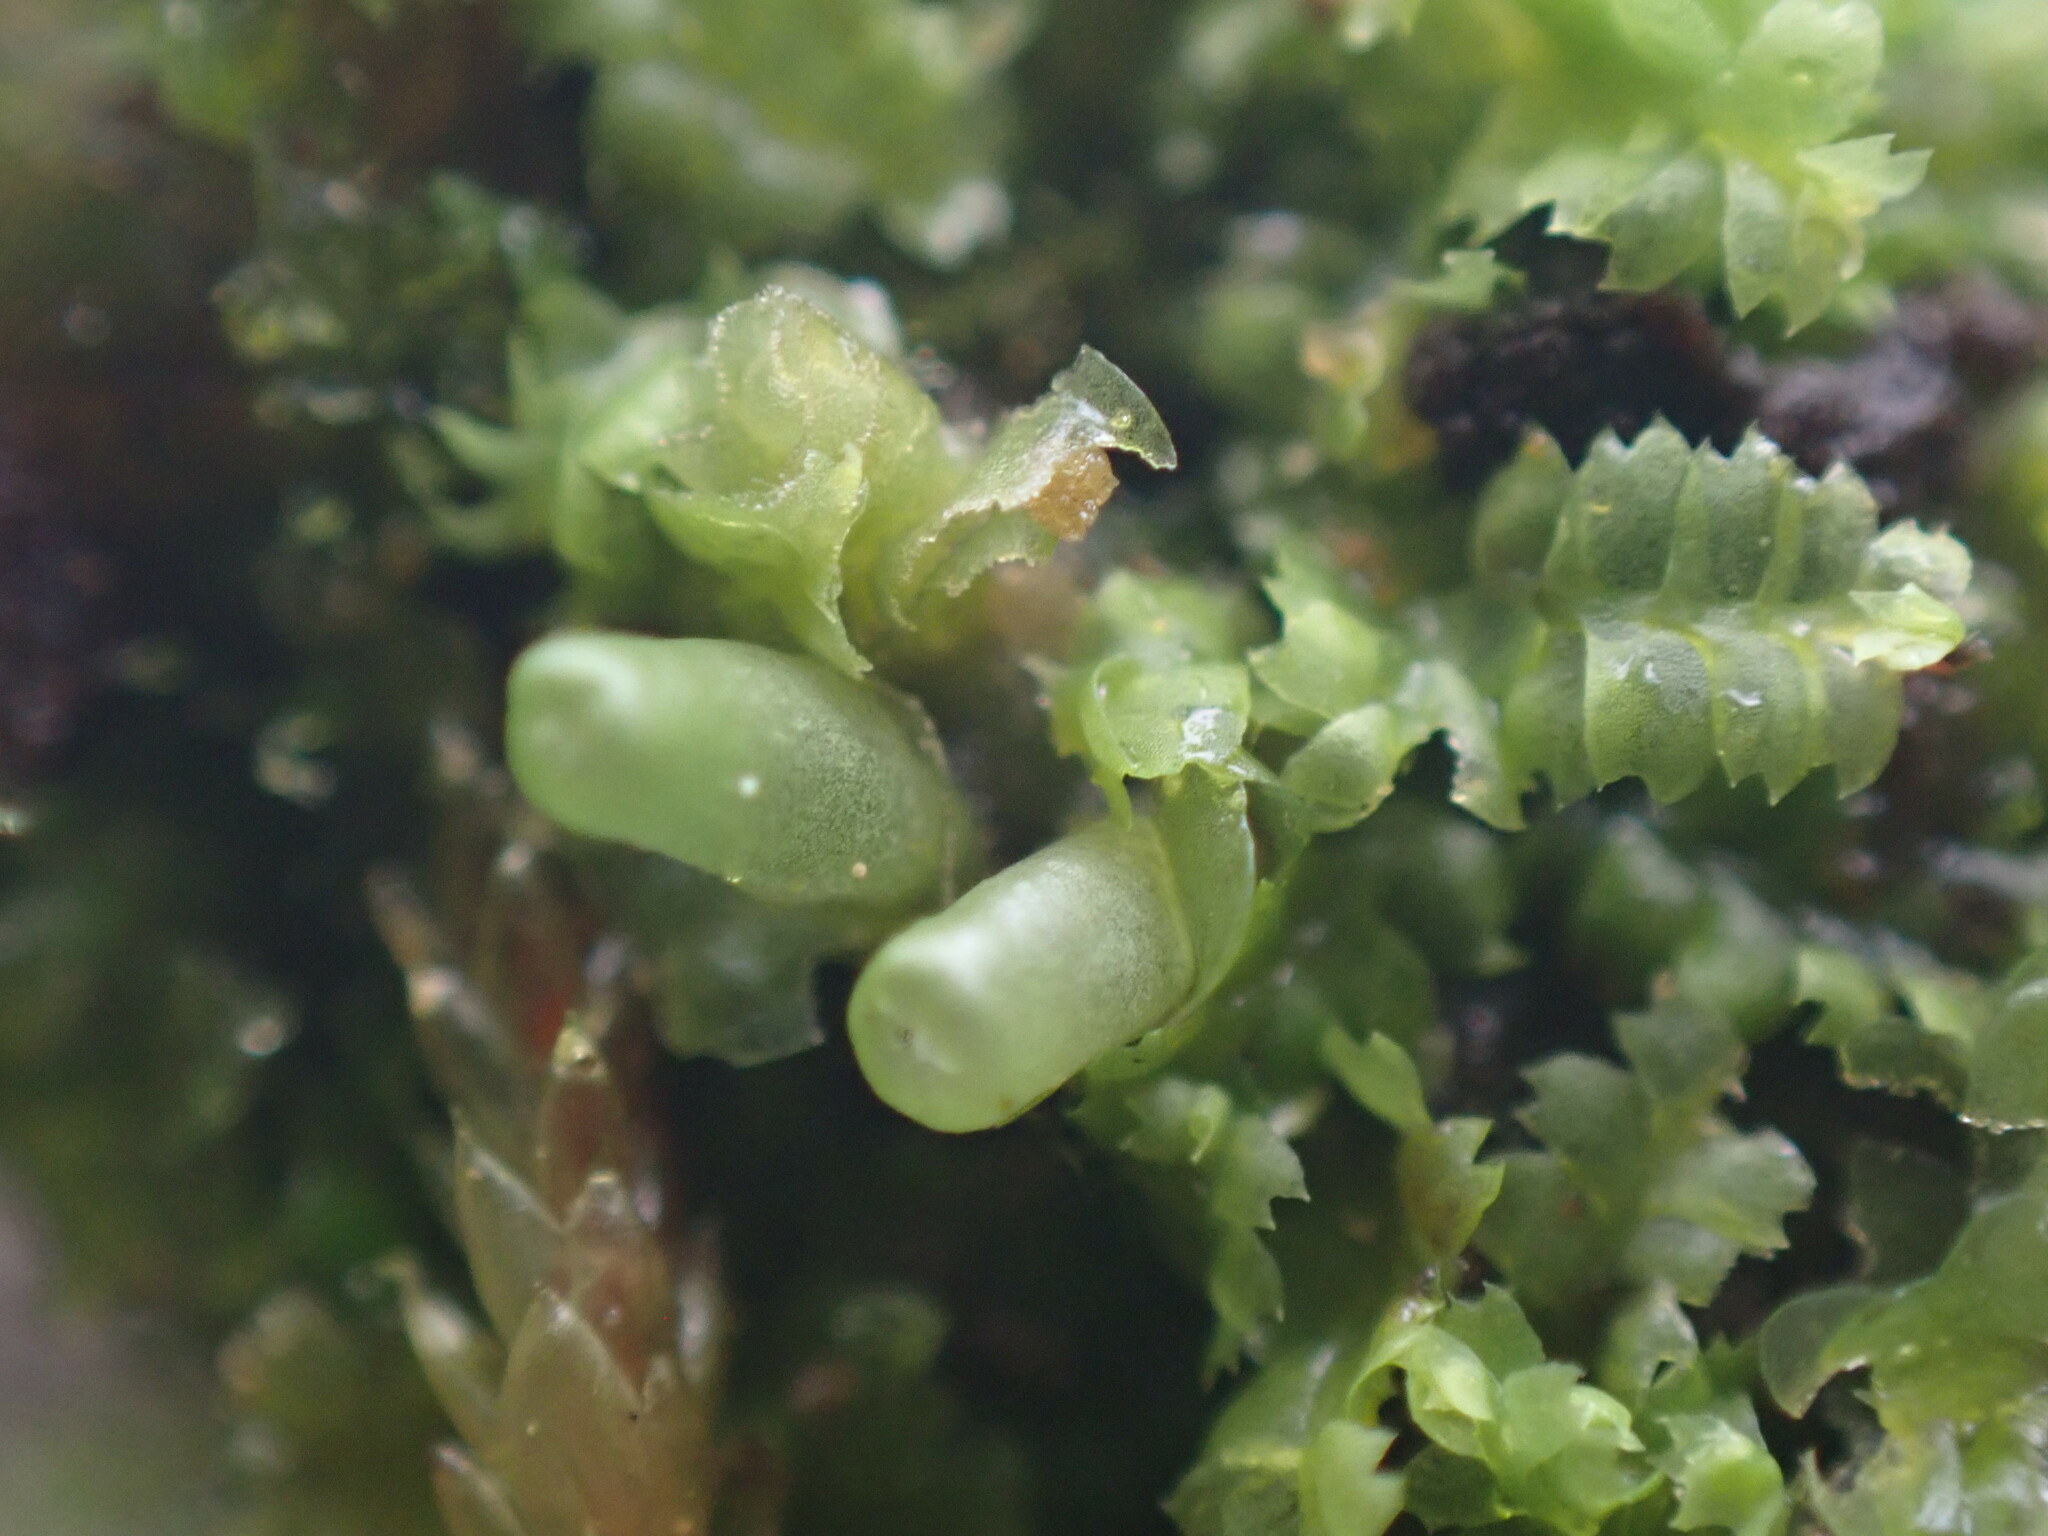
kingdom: Plantae
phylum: Marchantiophyta
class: Jungermanniopsida
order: Jungermanniales
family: Geocalycaceae
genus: Geocalyx
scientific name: Geocalyx graveolens
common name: Turps pouchwort
